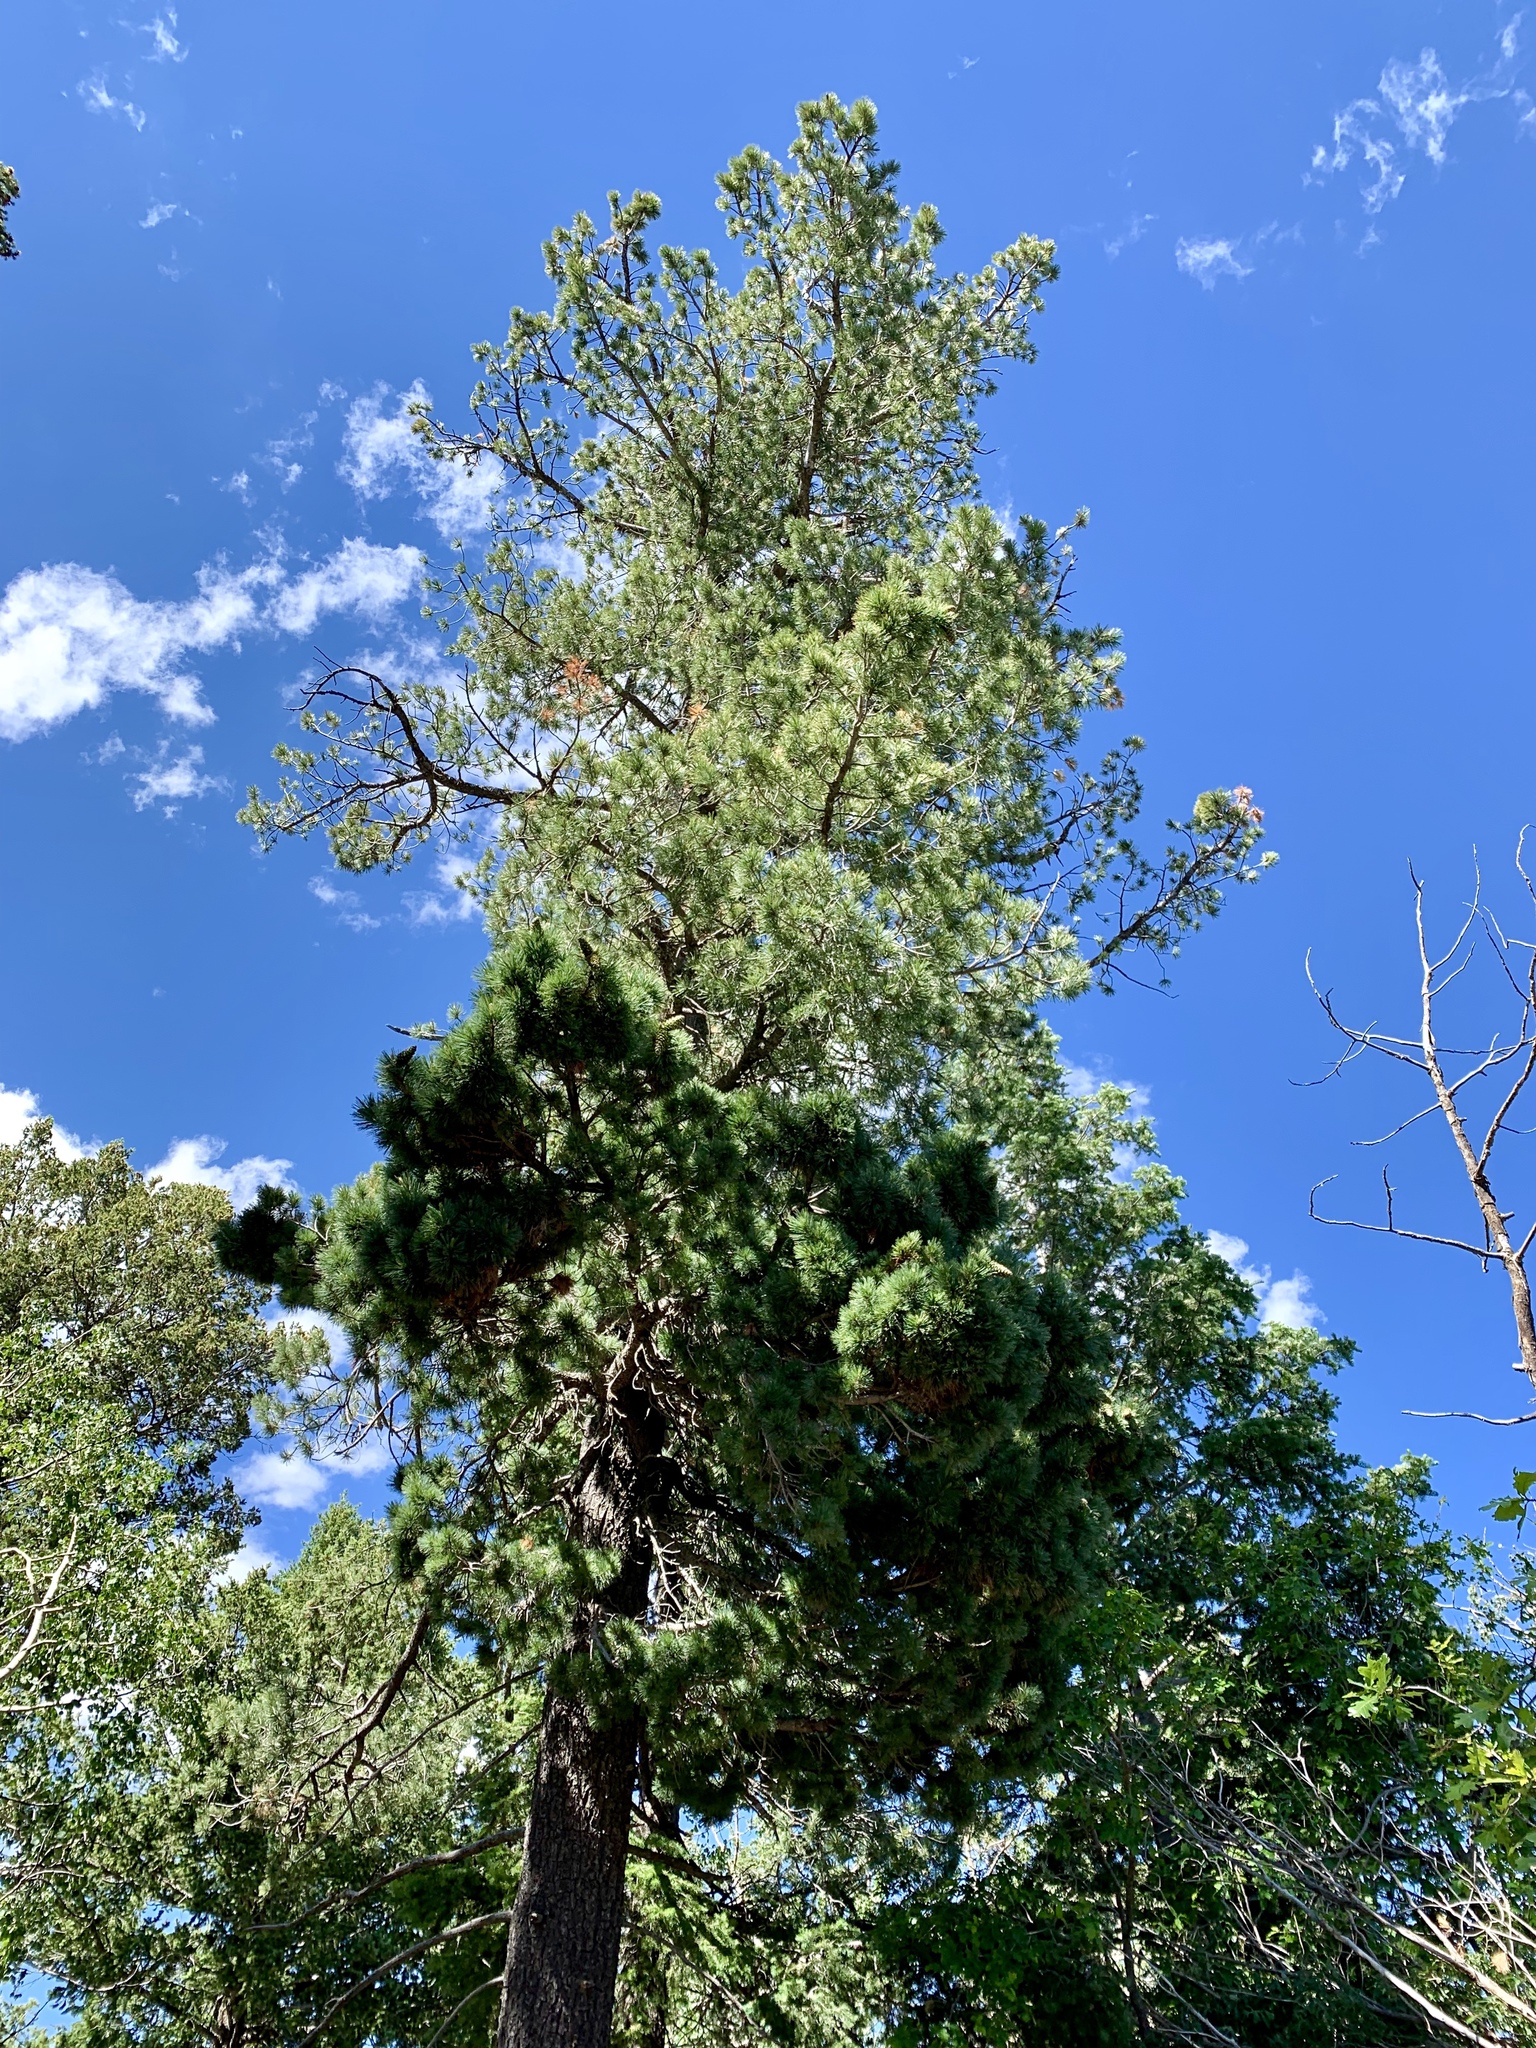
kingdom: Plantae
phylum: Tracheophyta
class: Pinopsida
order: Pinales
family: Pinaceae
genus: Pinus
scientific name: Pinus strobiformis
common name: Southwestern white pine
